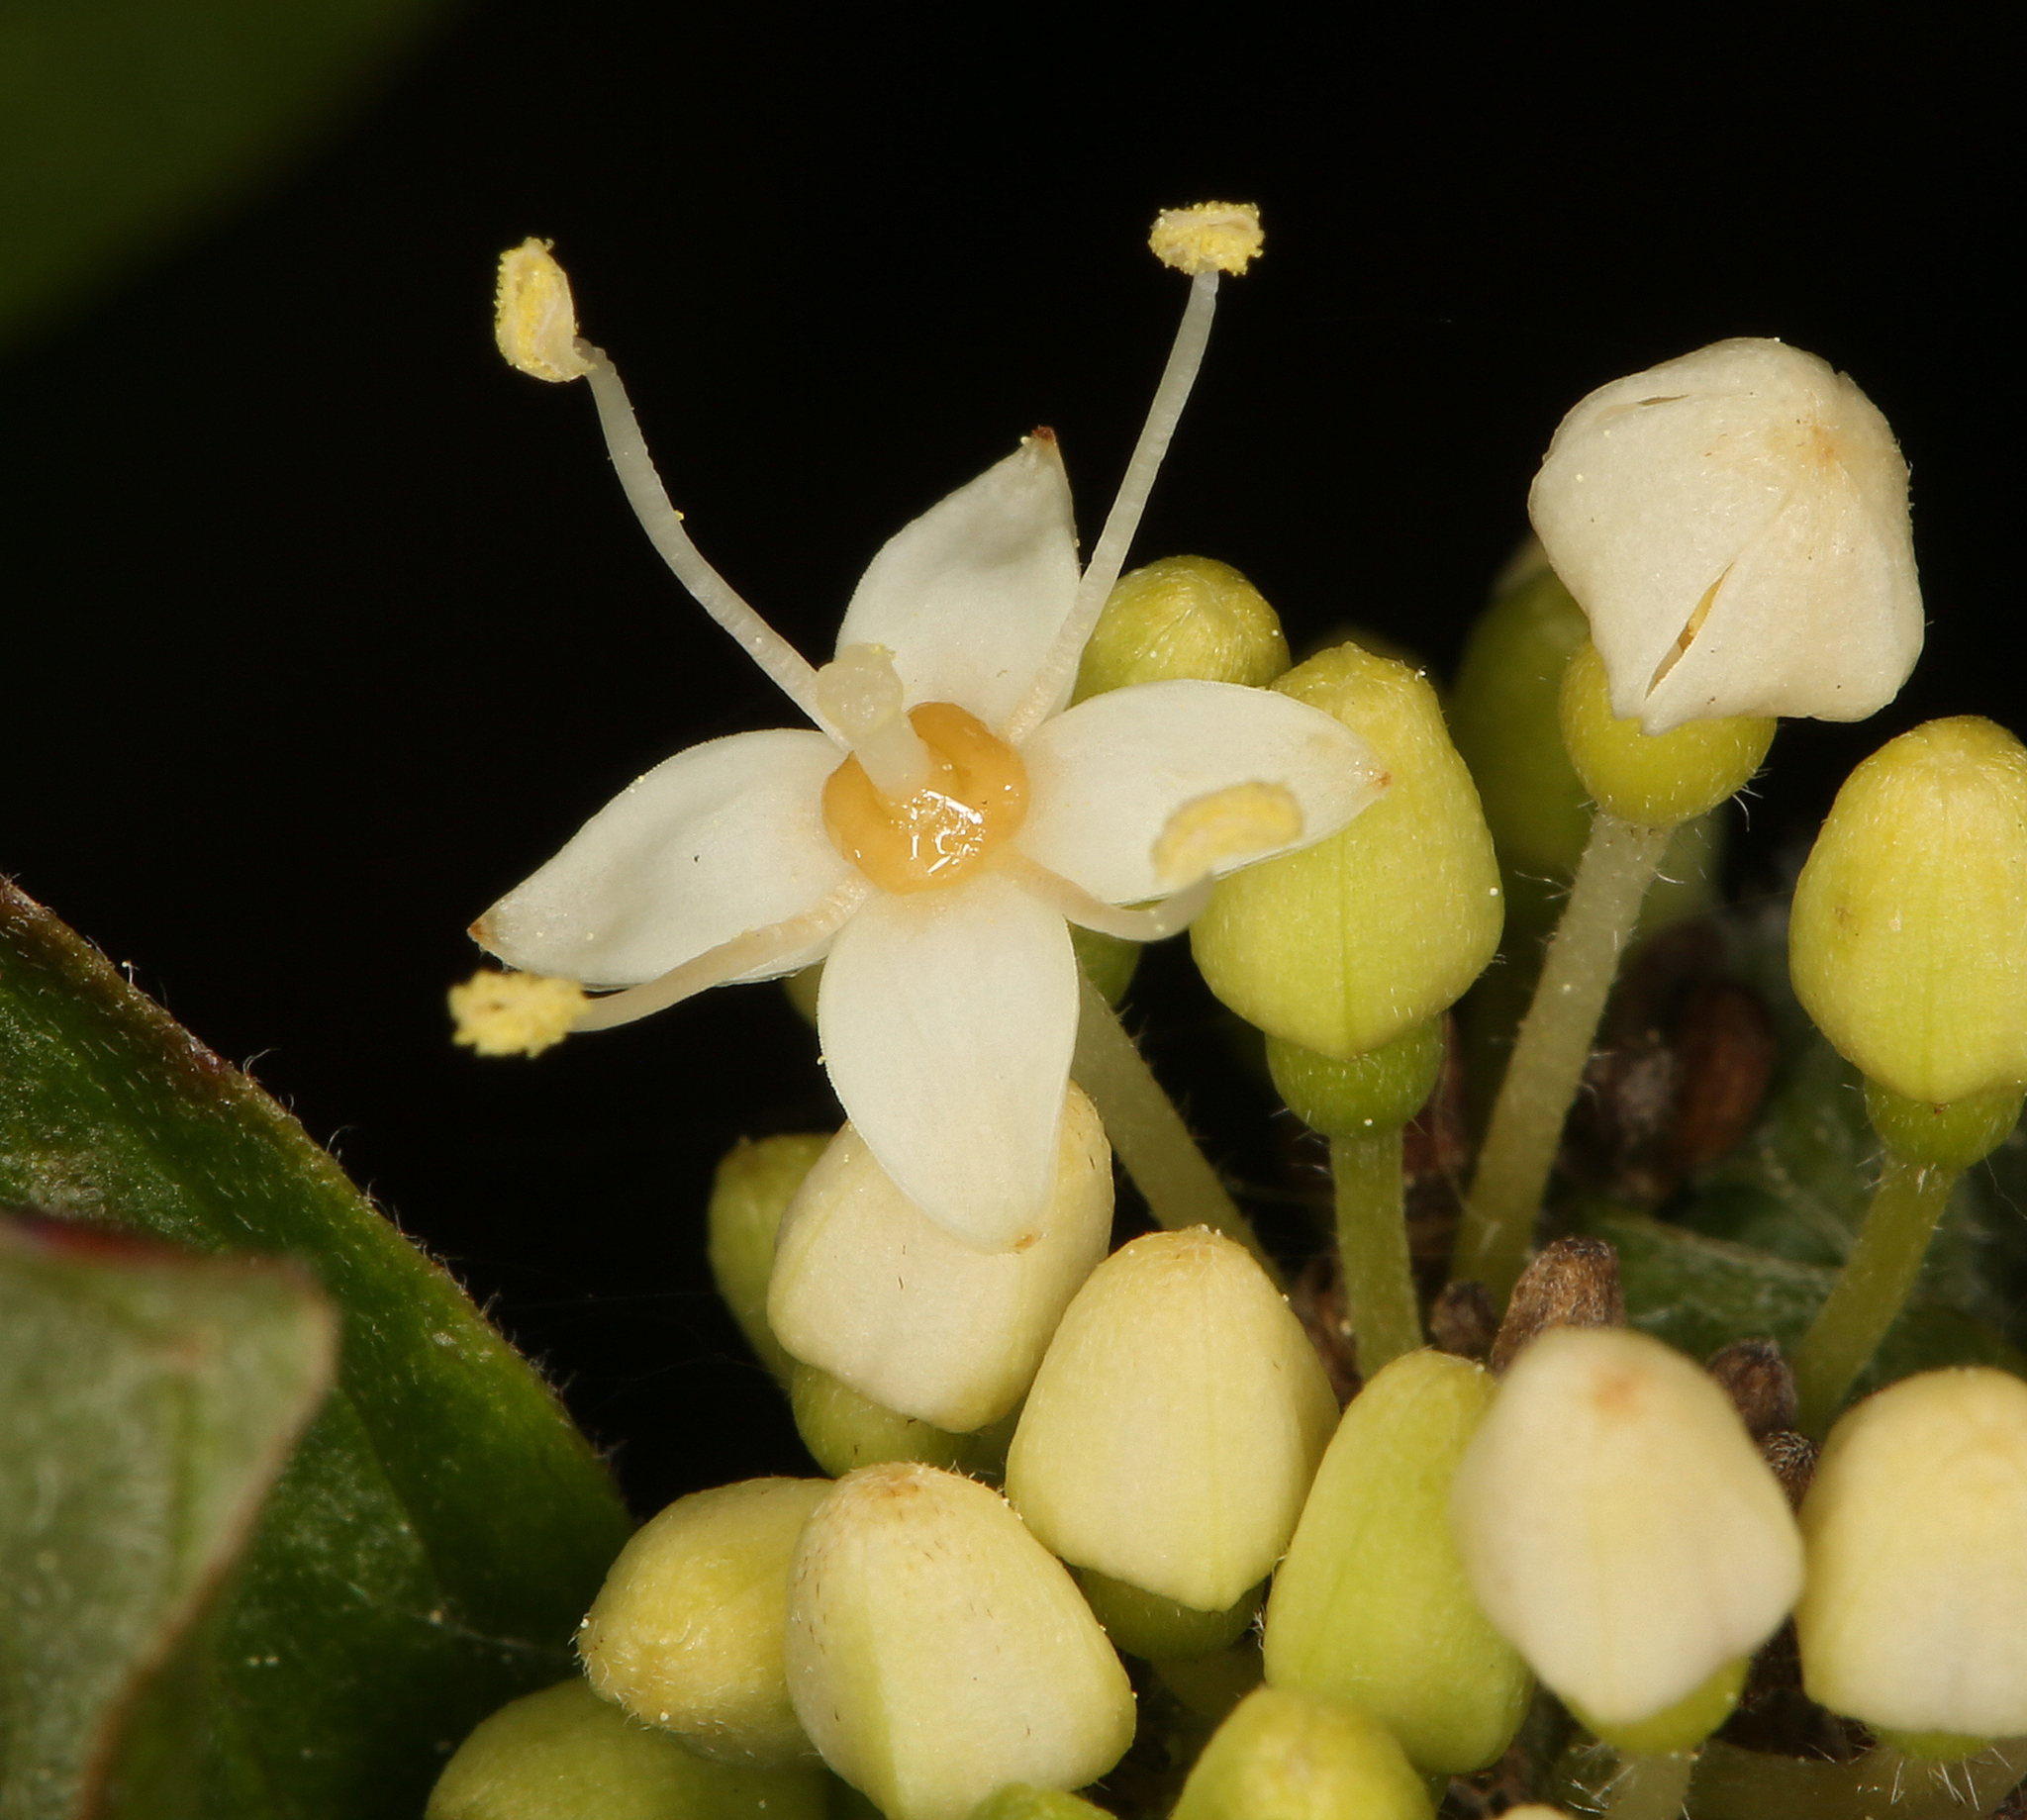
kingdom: Plantae
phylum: Tracheophyta
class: Magnoliopsida
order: Cornales
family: Cornaceae
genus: Cornus
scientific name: Cornus sericea
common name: Red-osier dogwood
